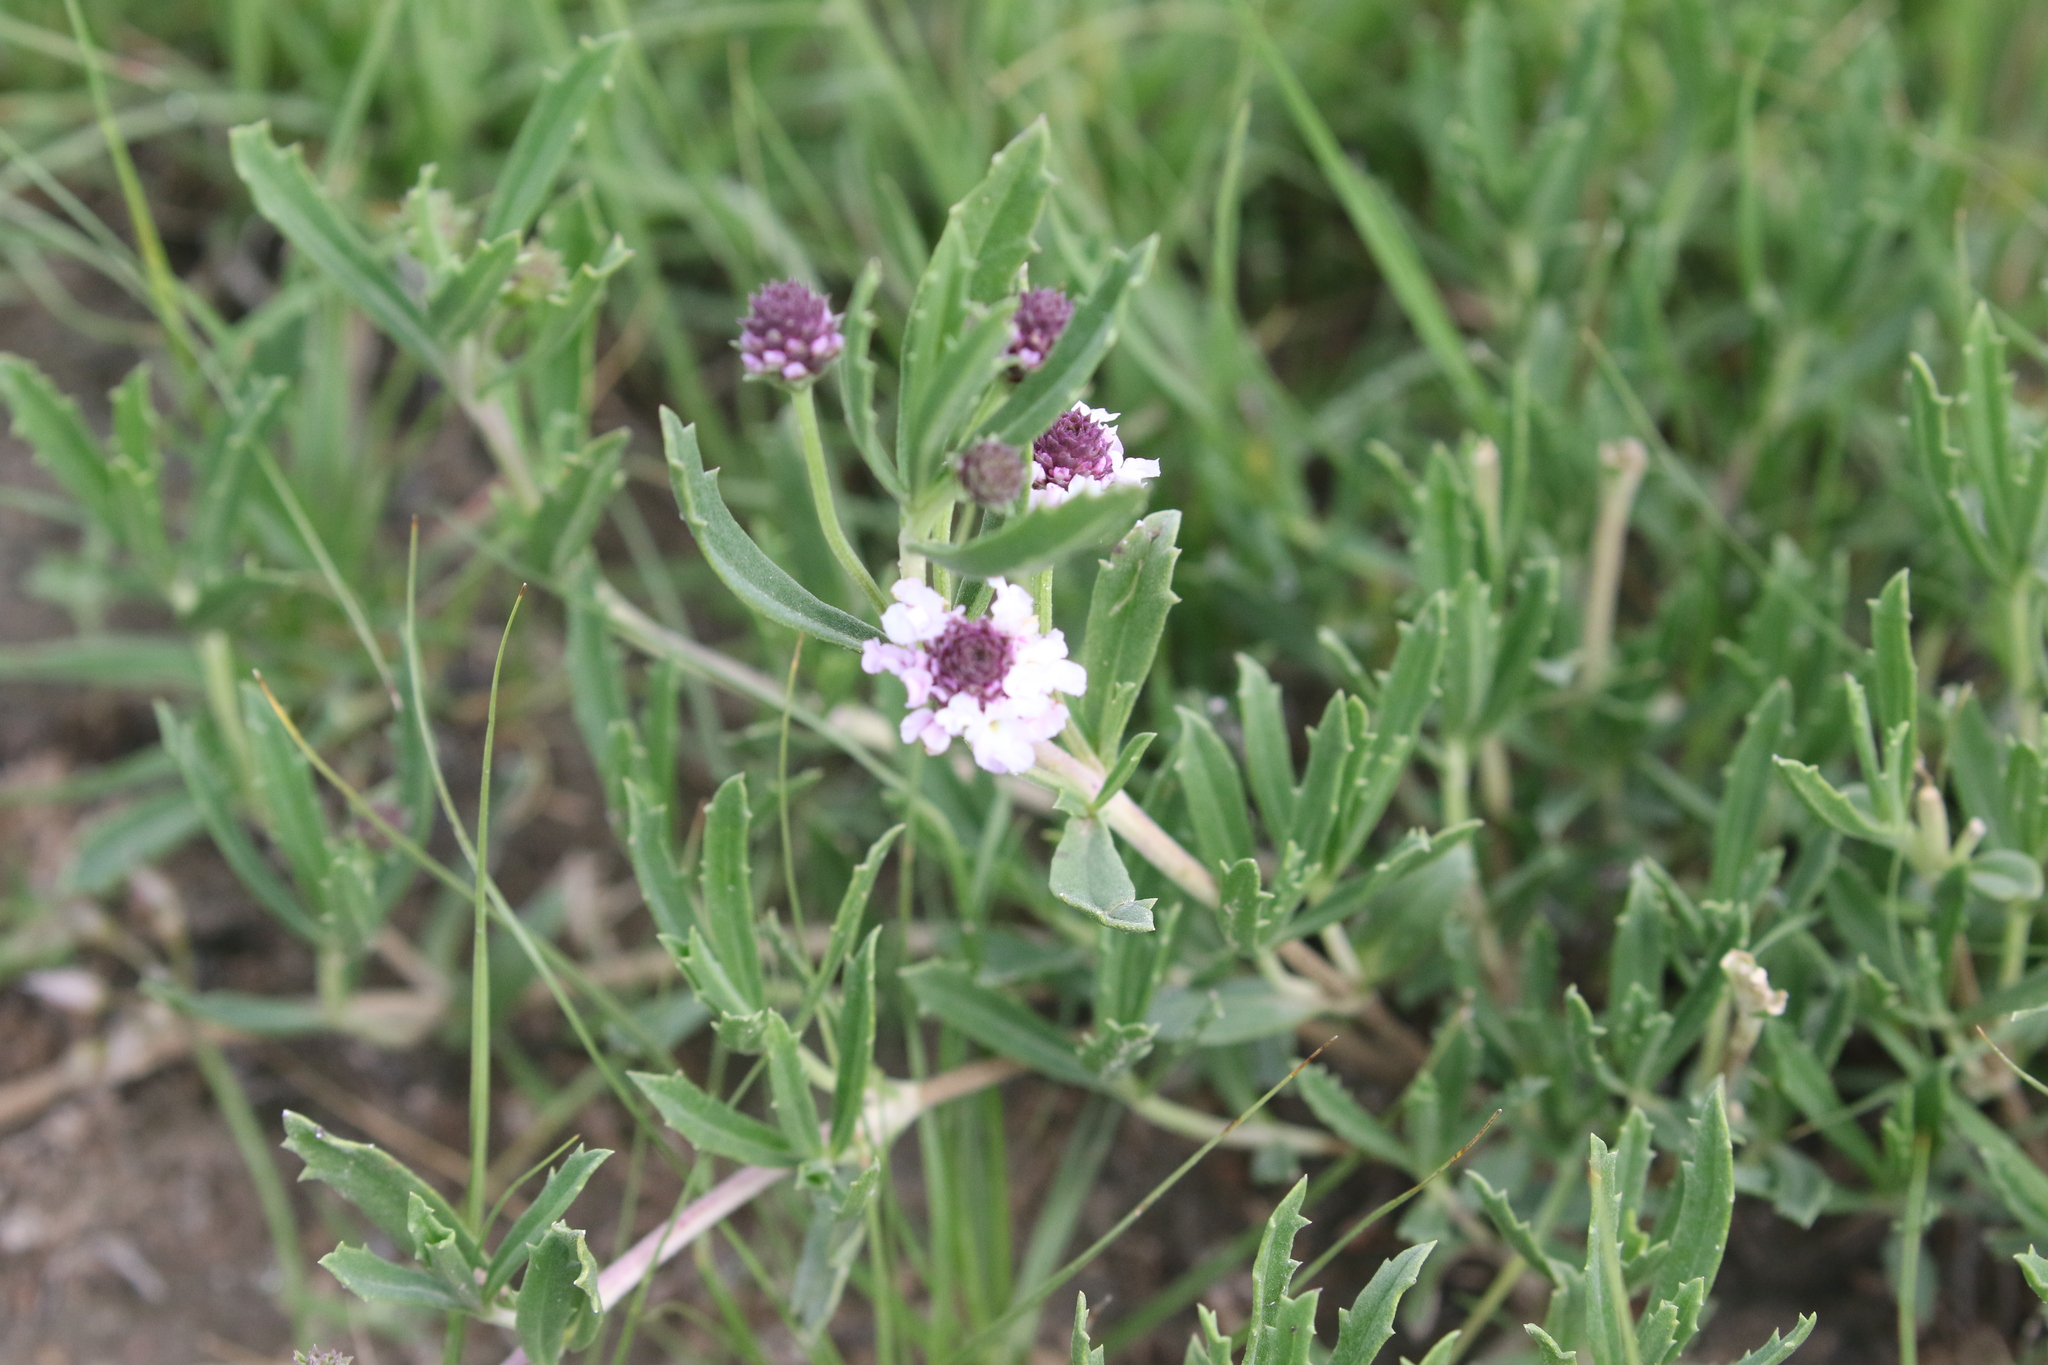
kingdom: Plantae
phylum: Tracheophyta
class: Magnoliopsida
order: Lamiales
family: Verbenaceae
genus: Phyla
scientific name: Phyla cuneifolia
